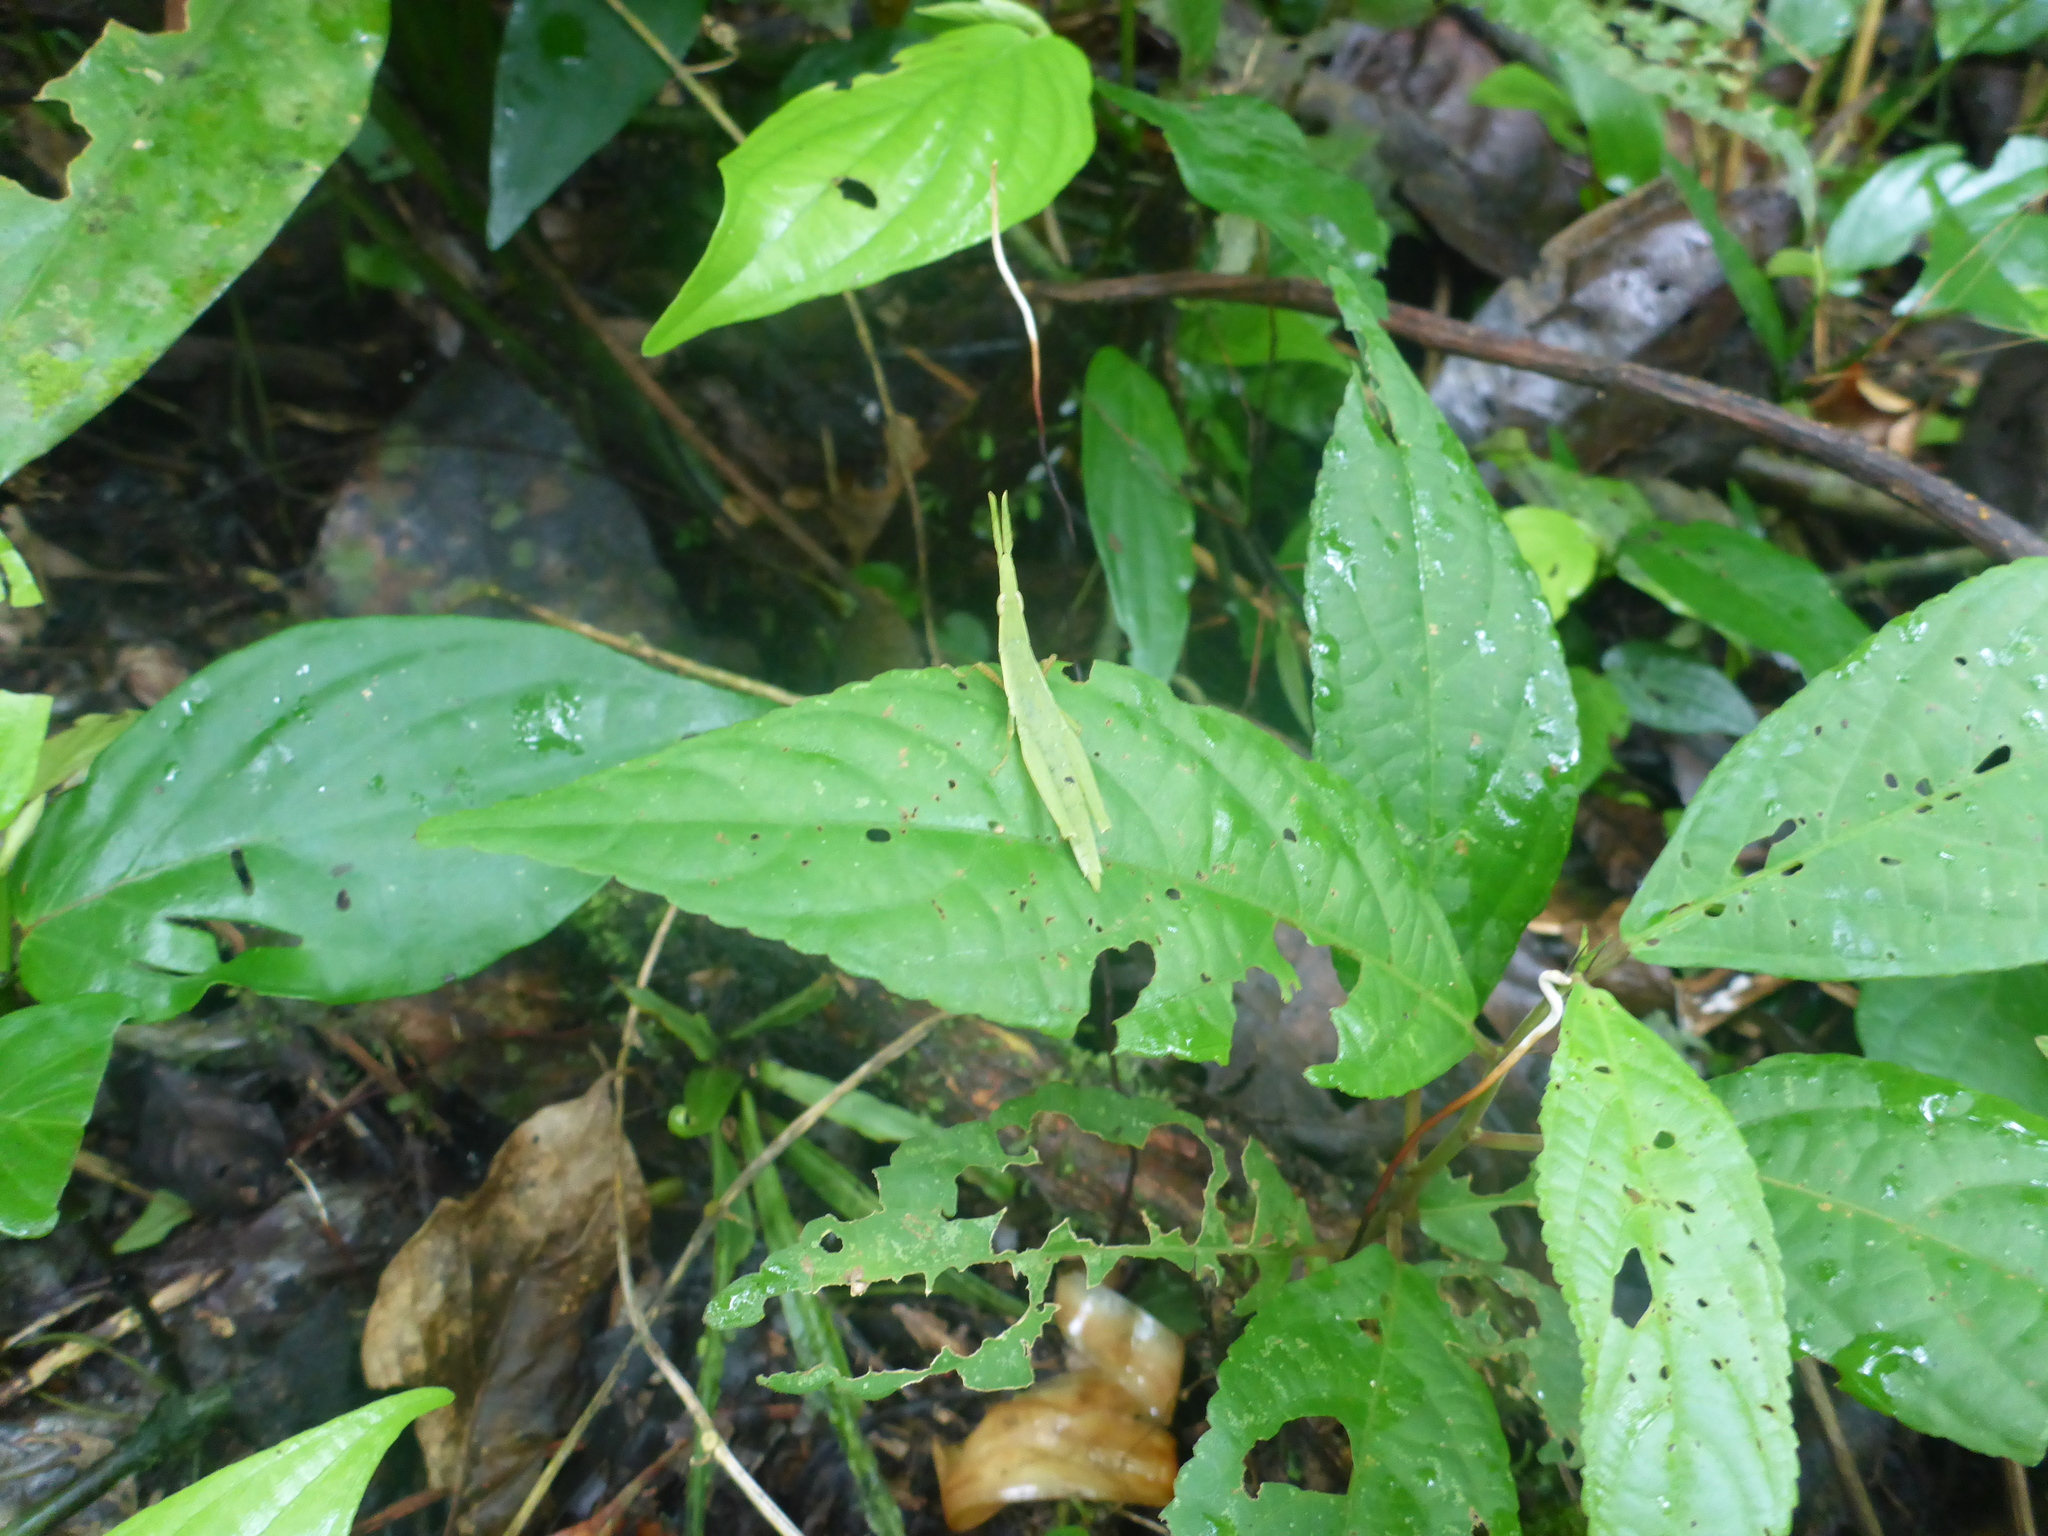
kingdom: Animalia
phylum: Arthropoda
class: Insecta
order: Orthoptera
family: Pyrgomorphidae
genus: Omura
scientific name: Omura congrua
